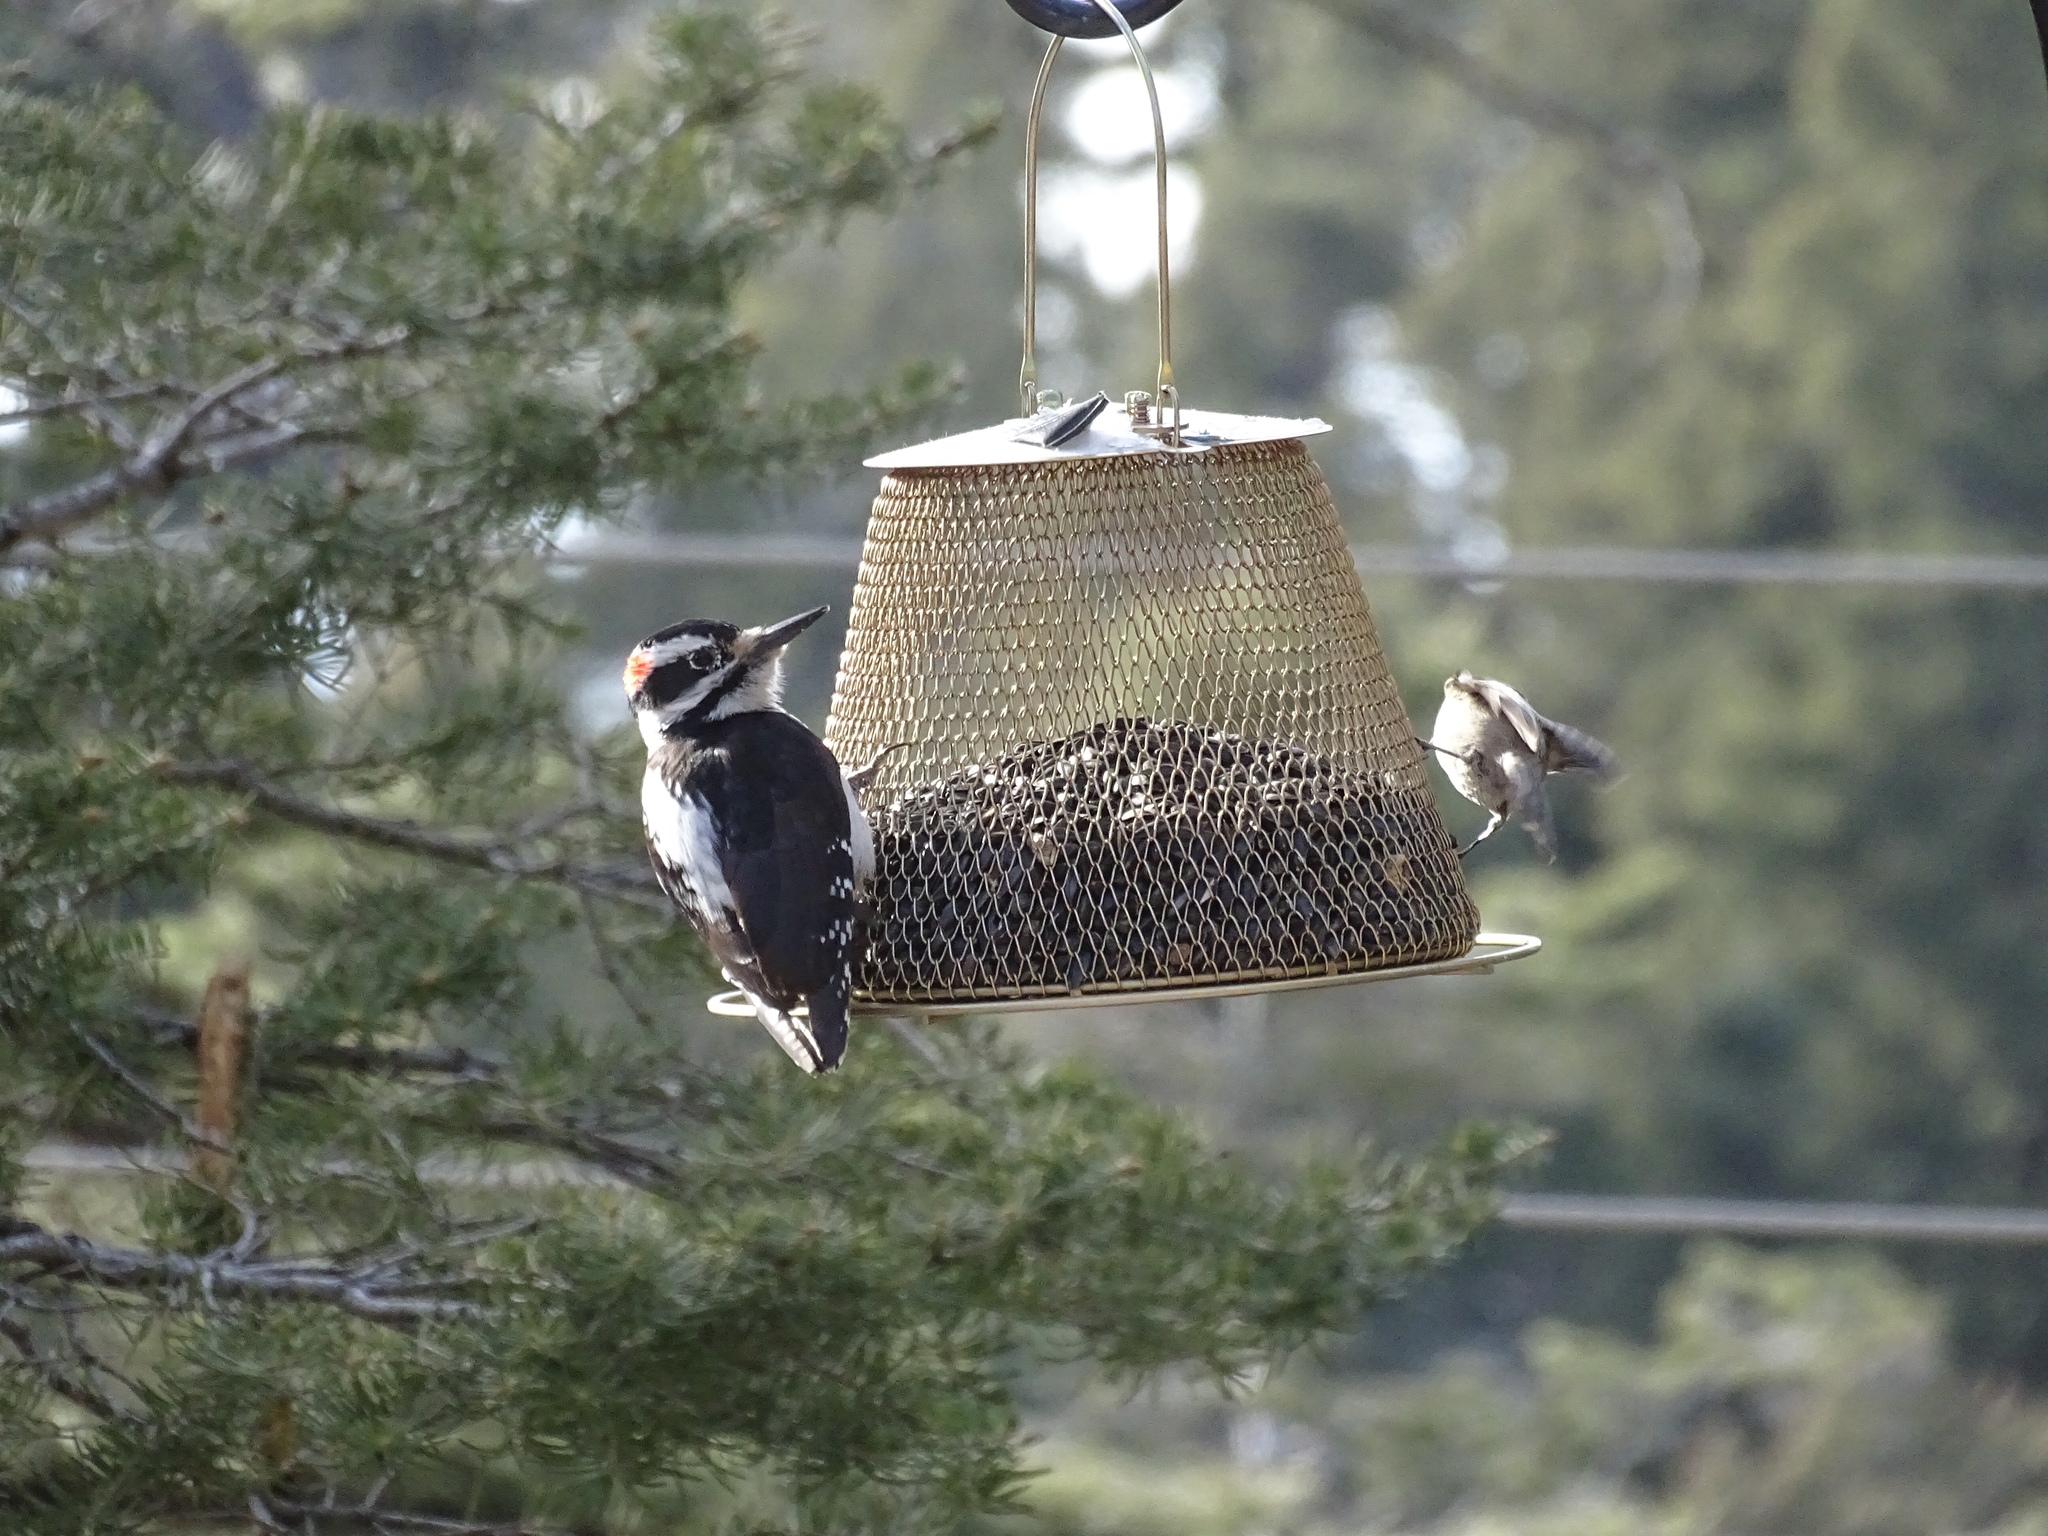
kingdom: Animalia
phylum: Chordata
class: Aves
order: Piciformes
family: Picidae
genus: Leuconotopicus
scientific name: Leuconotopicus villosus
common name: Hairy woodpecker
